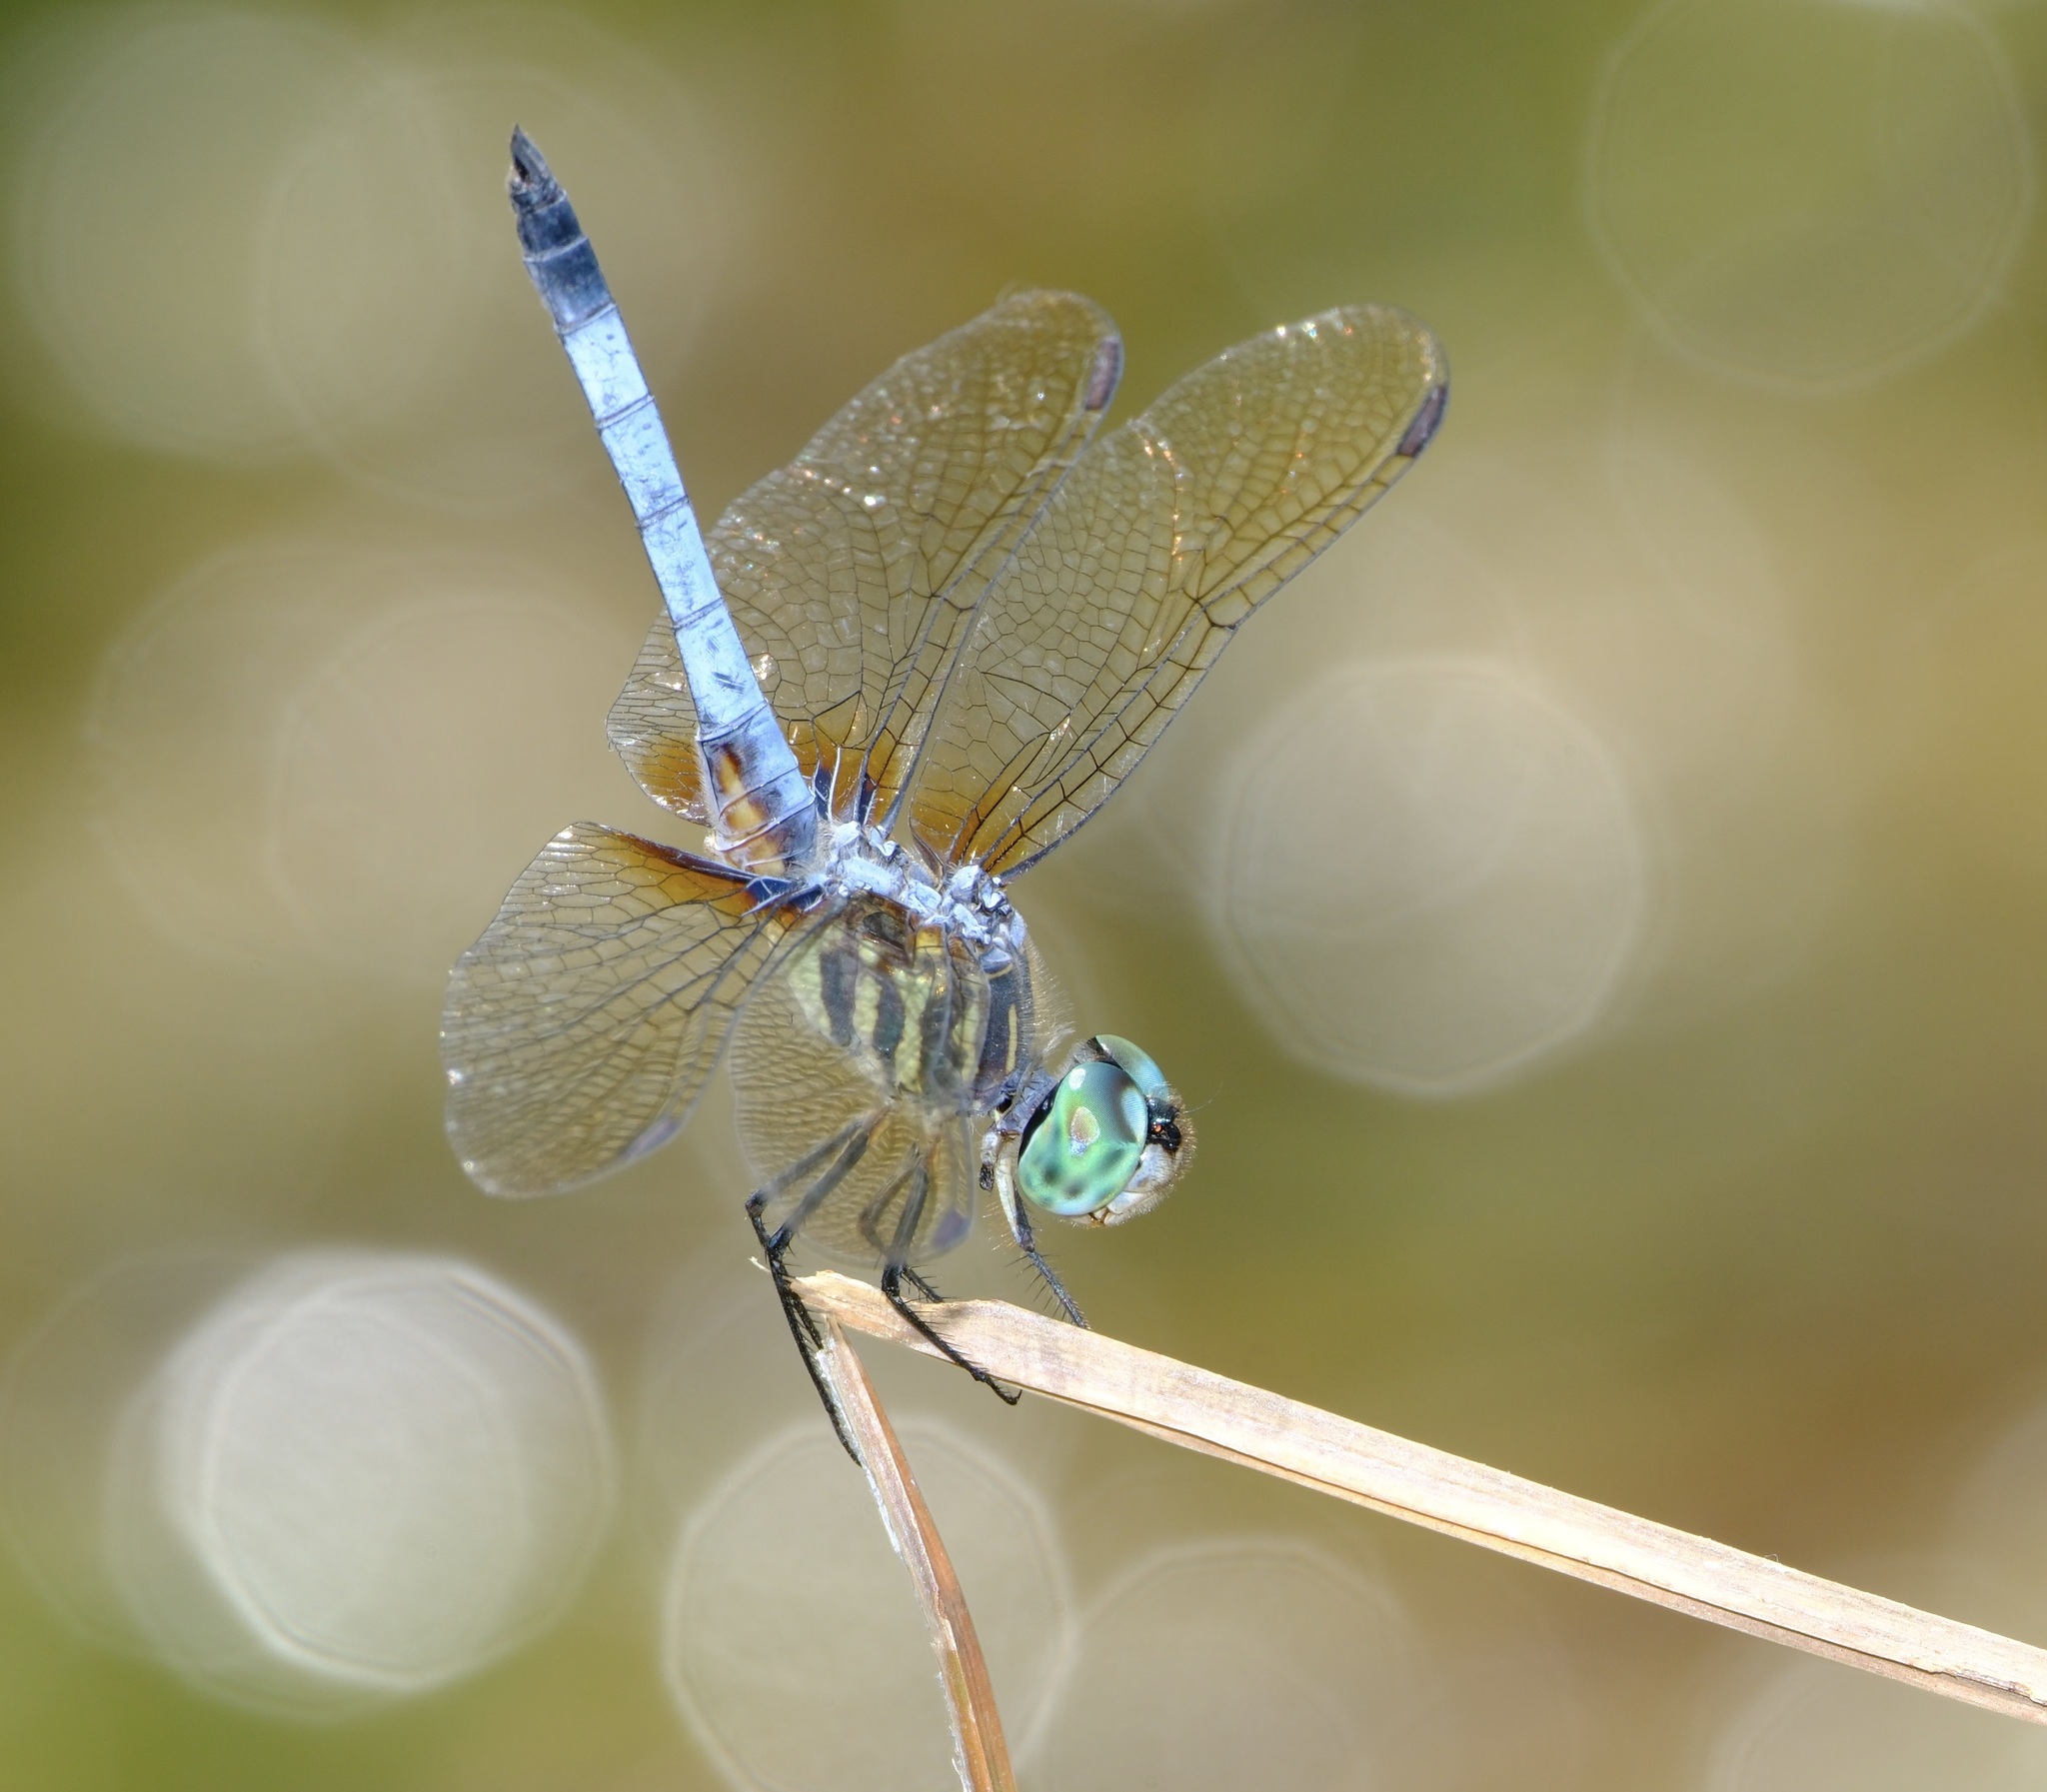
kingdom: Animalia
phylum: Arthropoda
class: Insecta
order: Odonata
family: Libellulidae
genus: Pachydiplax
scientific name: Pachydiplax longipennis
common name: Blue dasher
